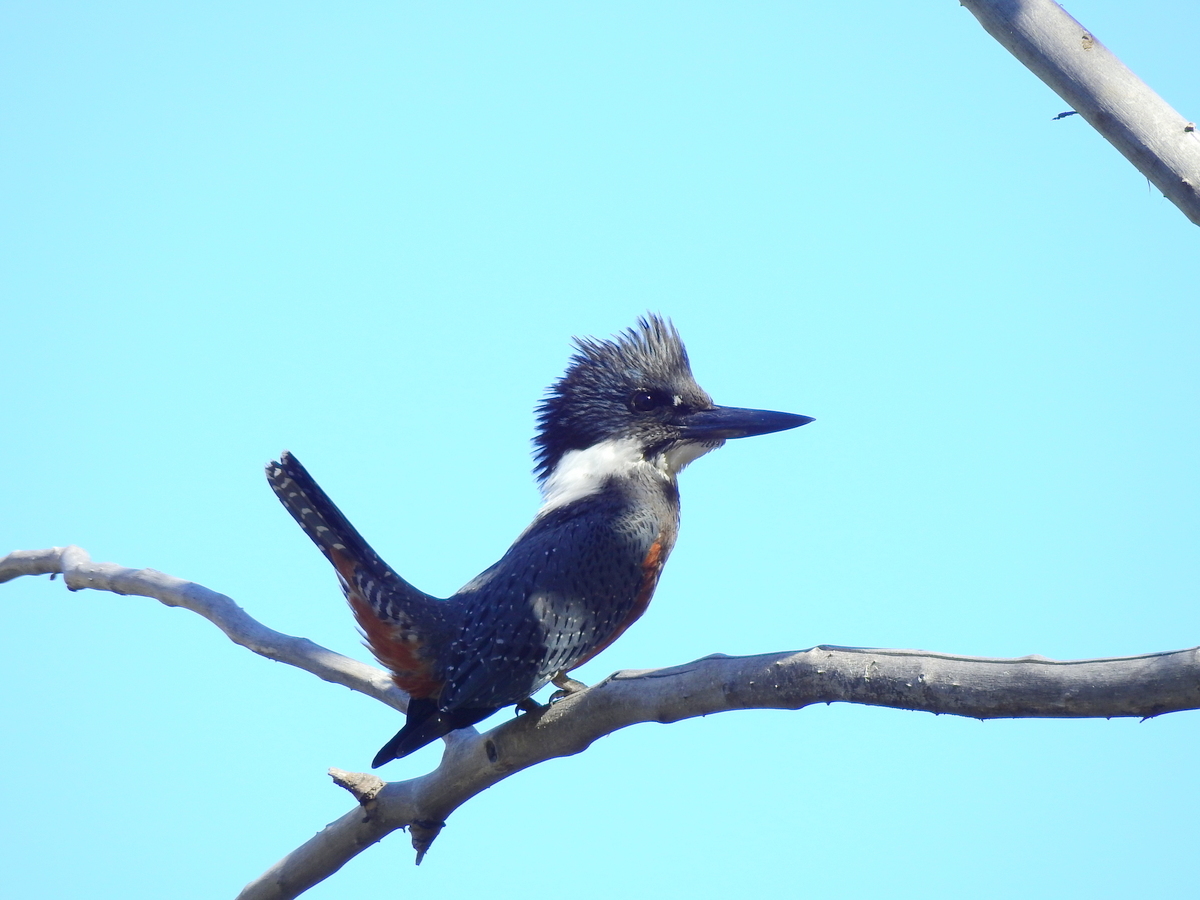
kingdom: Animalia
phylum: Chordata
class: Aves
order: Coraciiformes
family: Alcedinidae
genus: Megaceryle
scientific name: Megaceryle torquata
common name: Ringed kingfisher
